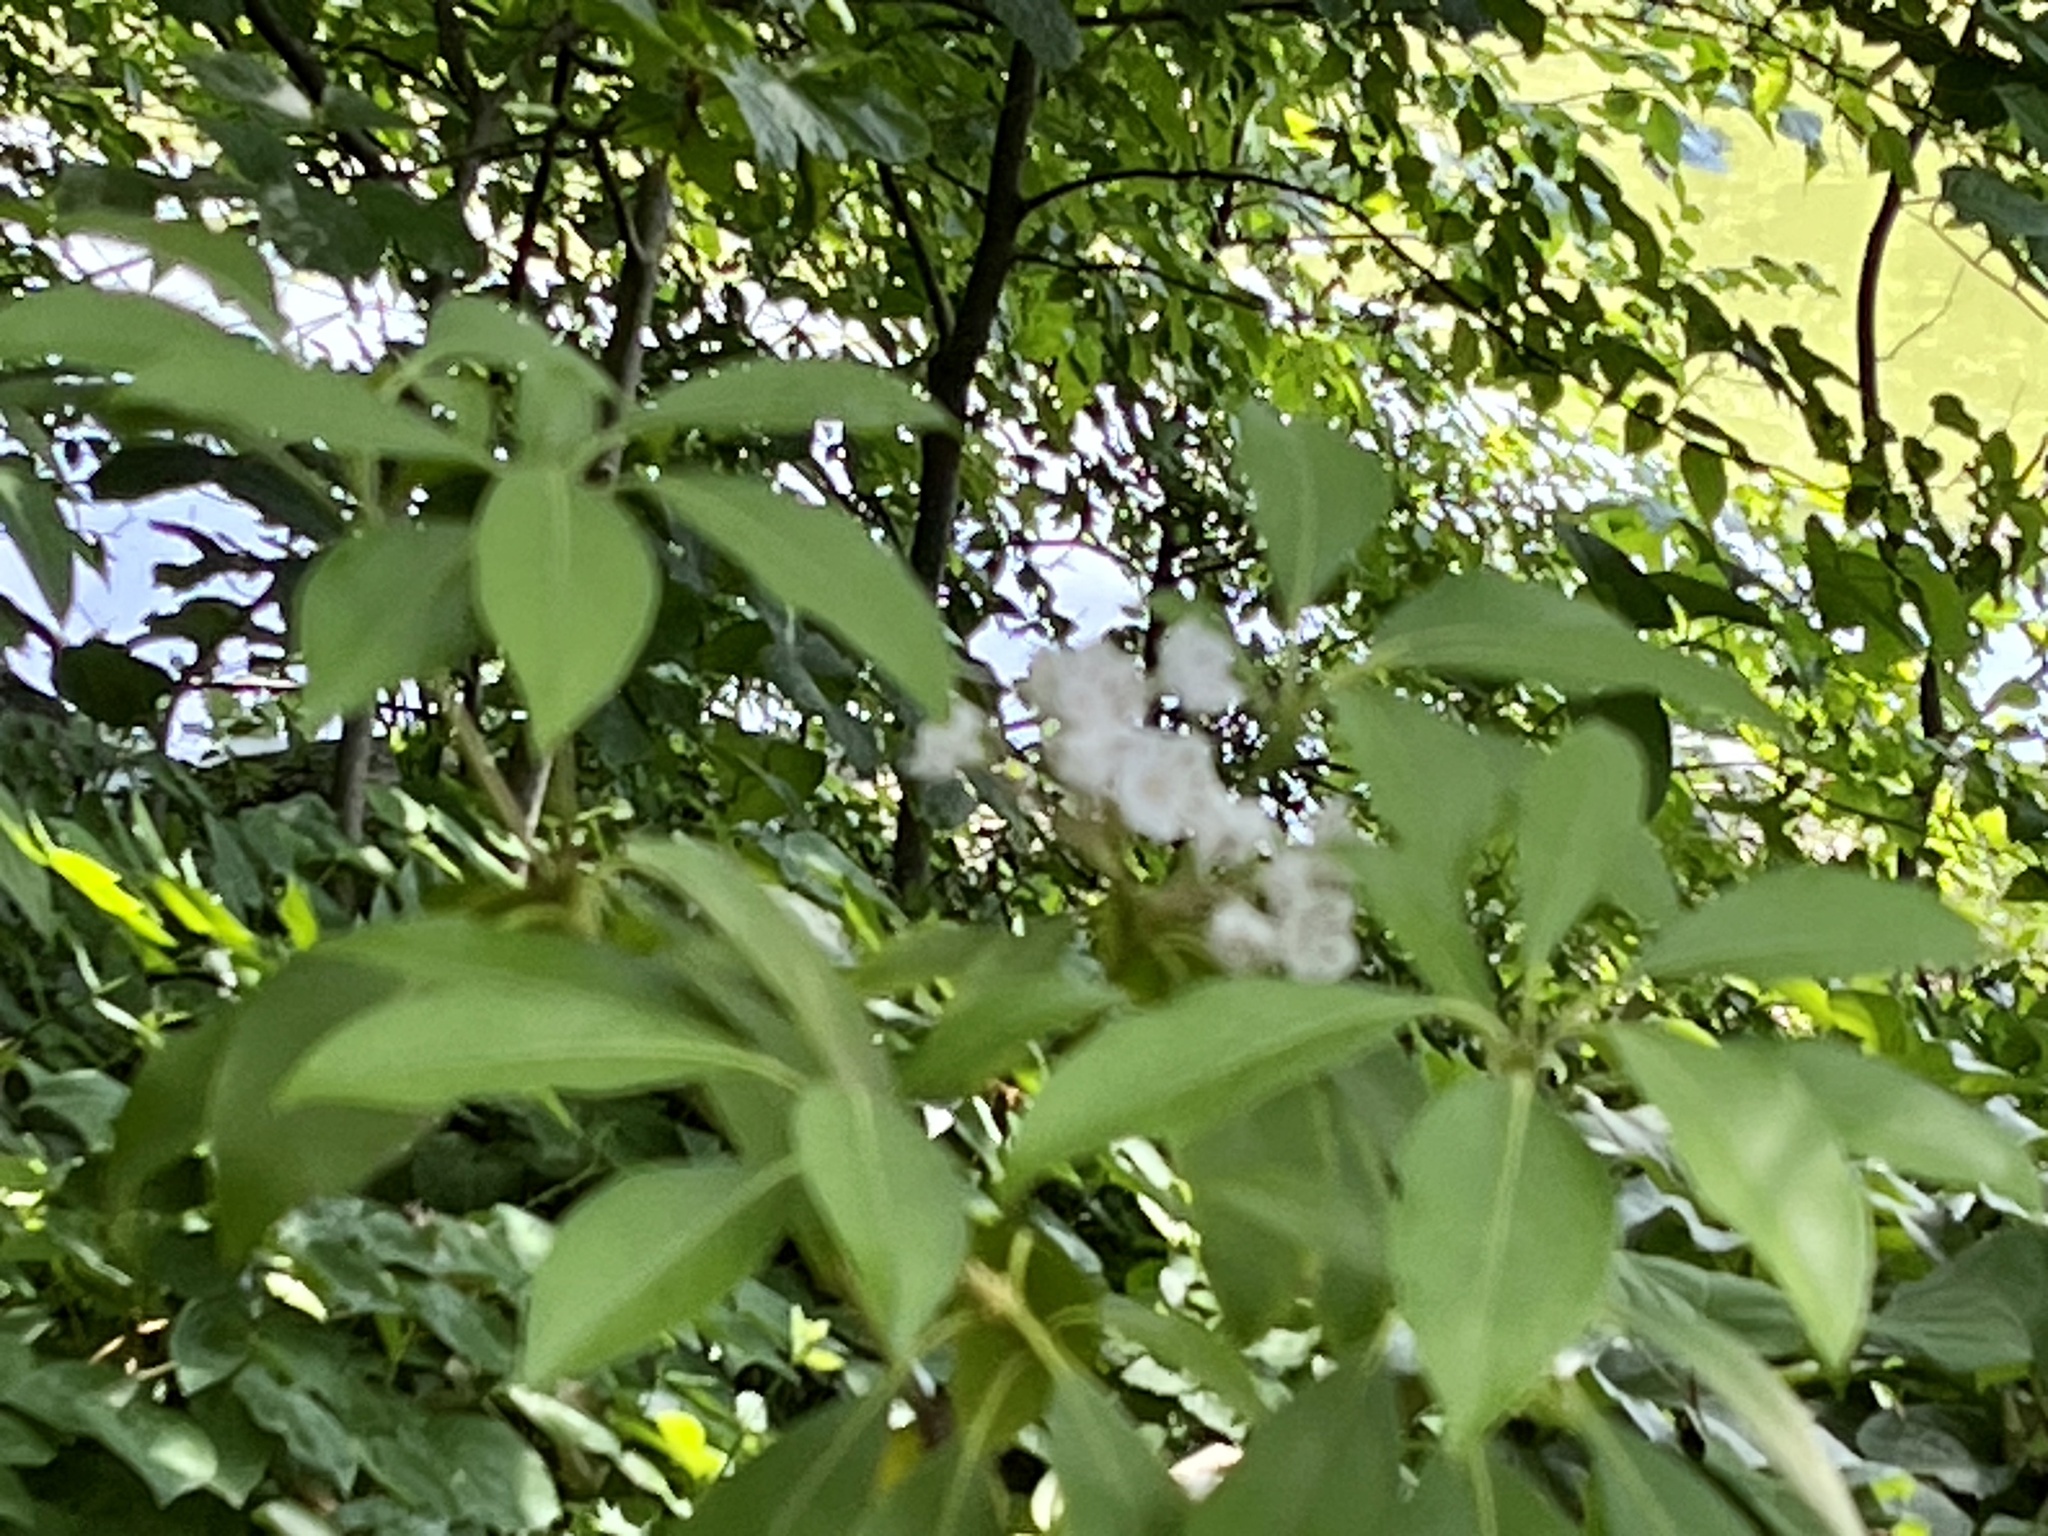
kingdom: Plantae
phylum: Tracheophyta
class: Magnoliopsida
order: Ericales
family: Ericaceae
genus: Kalmia
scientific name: Kalmia latifolia
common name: Mountain-laurel
